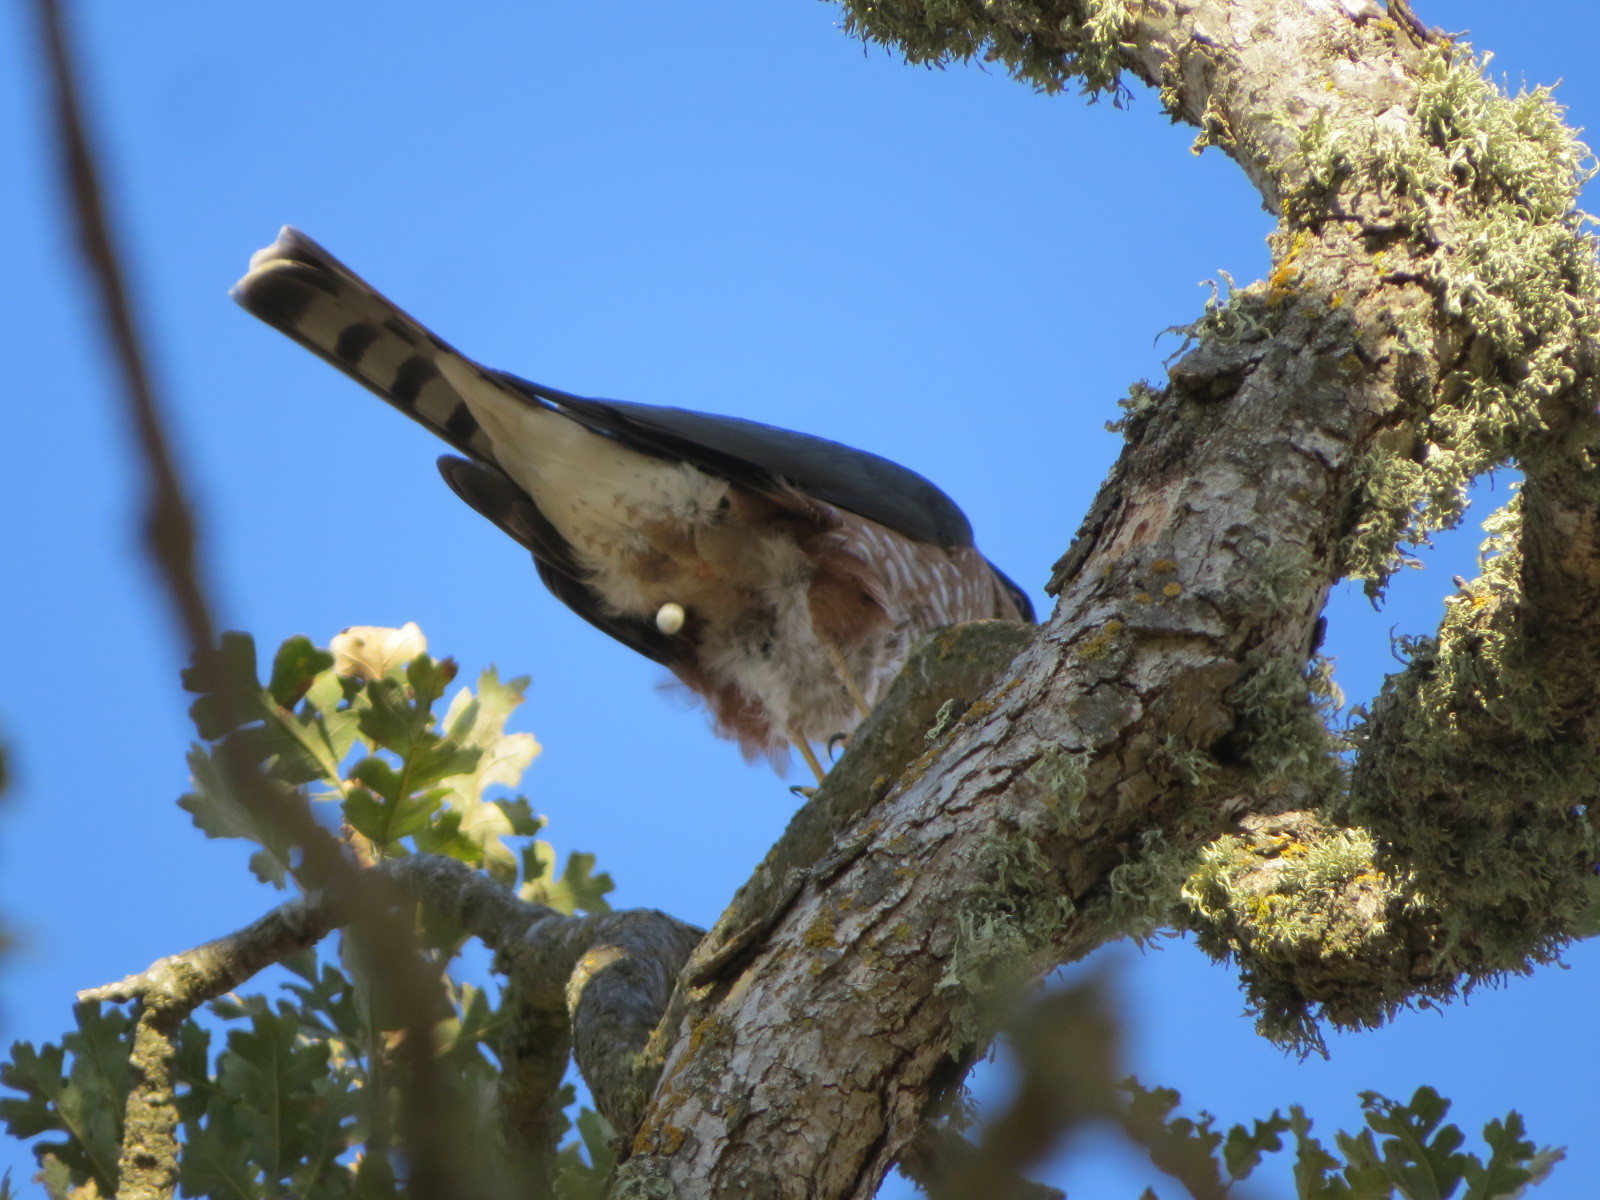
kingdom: Animalia
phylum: Chordata
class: Aves
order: Accipitriformes
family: Accipitridae
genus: Accipiter
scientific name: Accipiter striatus
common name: Sharp-shinned hawk
